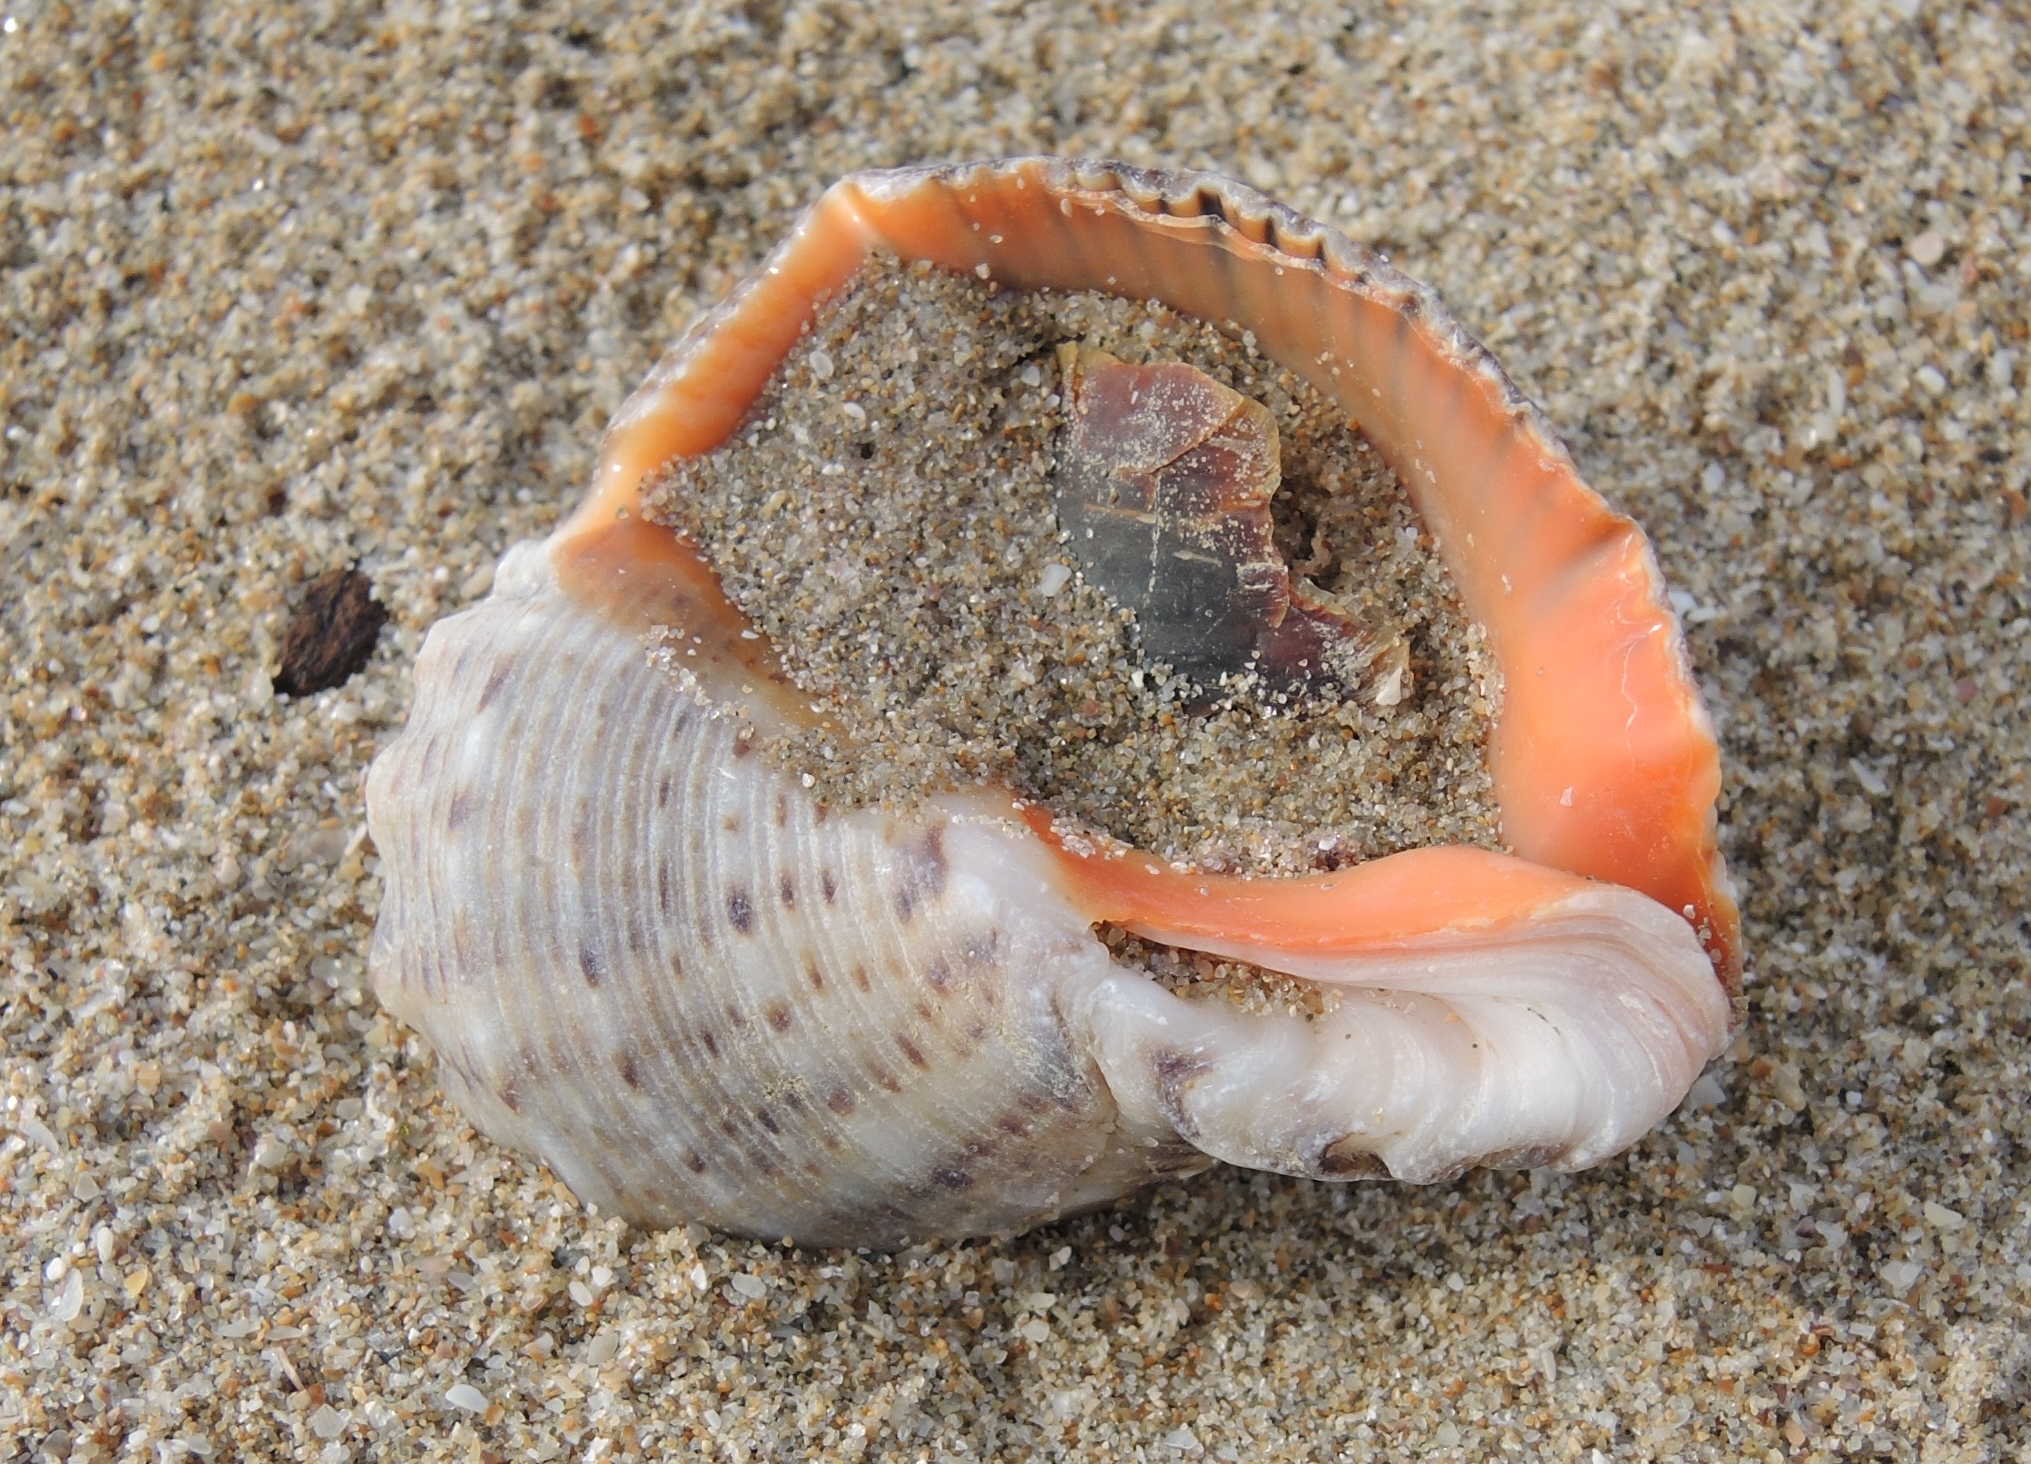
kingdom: Animalia
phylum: Mollusca
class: Gastropoda
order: Neogastropoda
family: Muricidae
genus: Rapana
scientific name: Rapana venosa
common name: Veined rapa whelk
